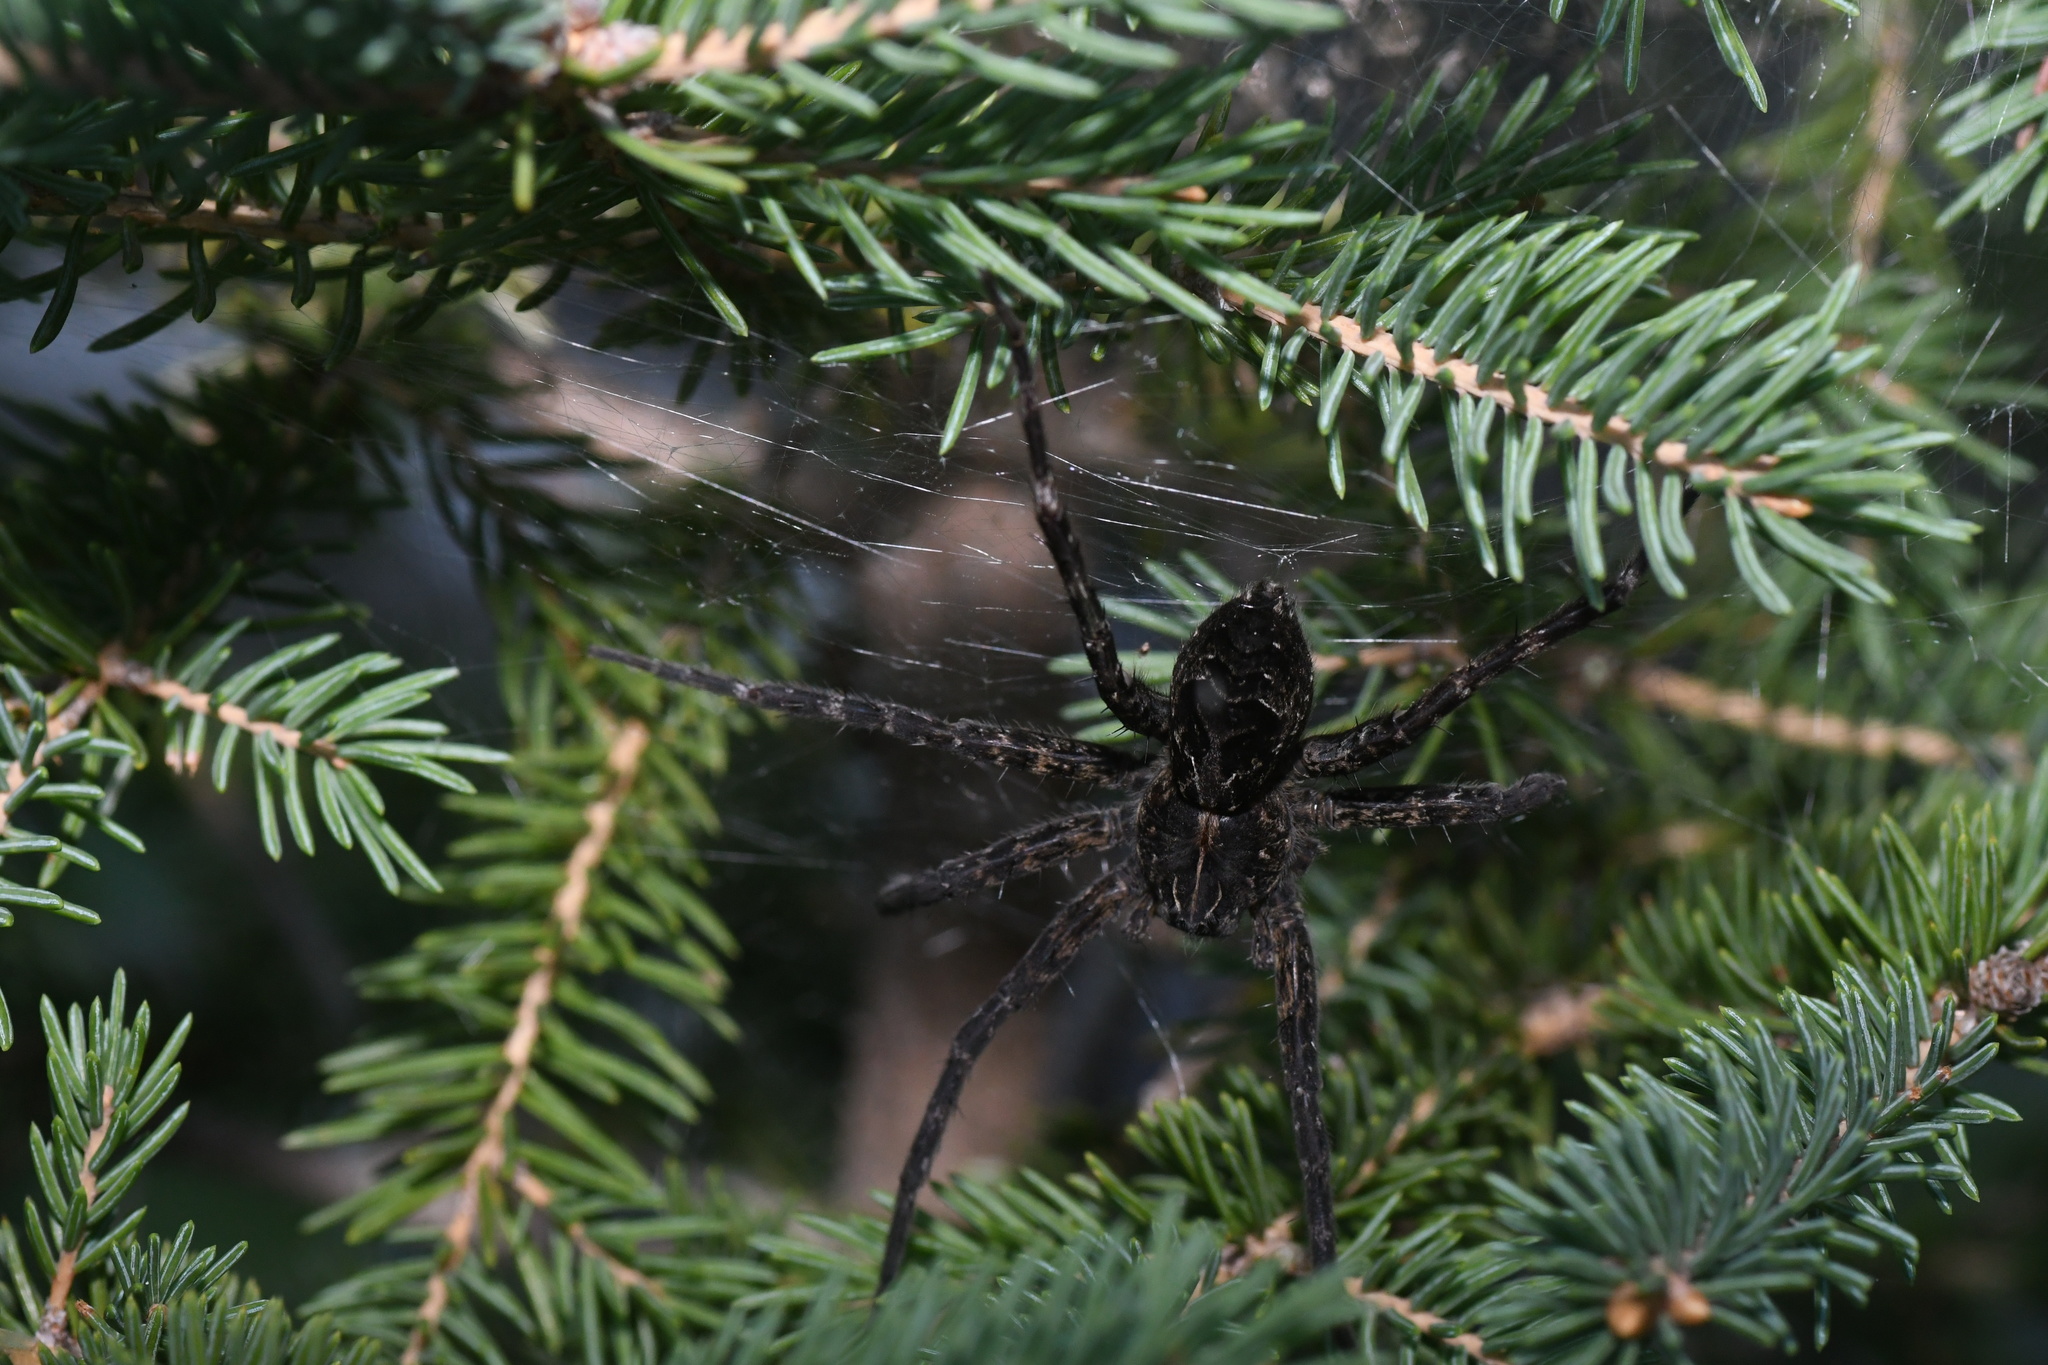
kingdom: Animalia
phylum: Arthropoda
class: Arachnida
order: Araneae
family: Pisauridae
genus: Dolomedes
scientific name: Dolomedes scriptus
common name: Striped fishing spider
